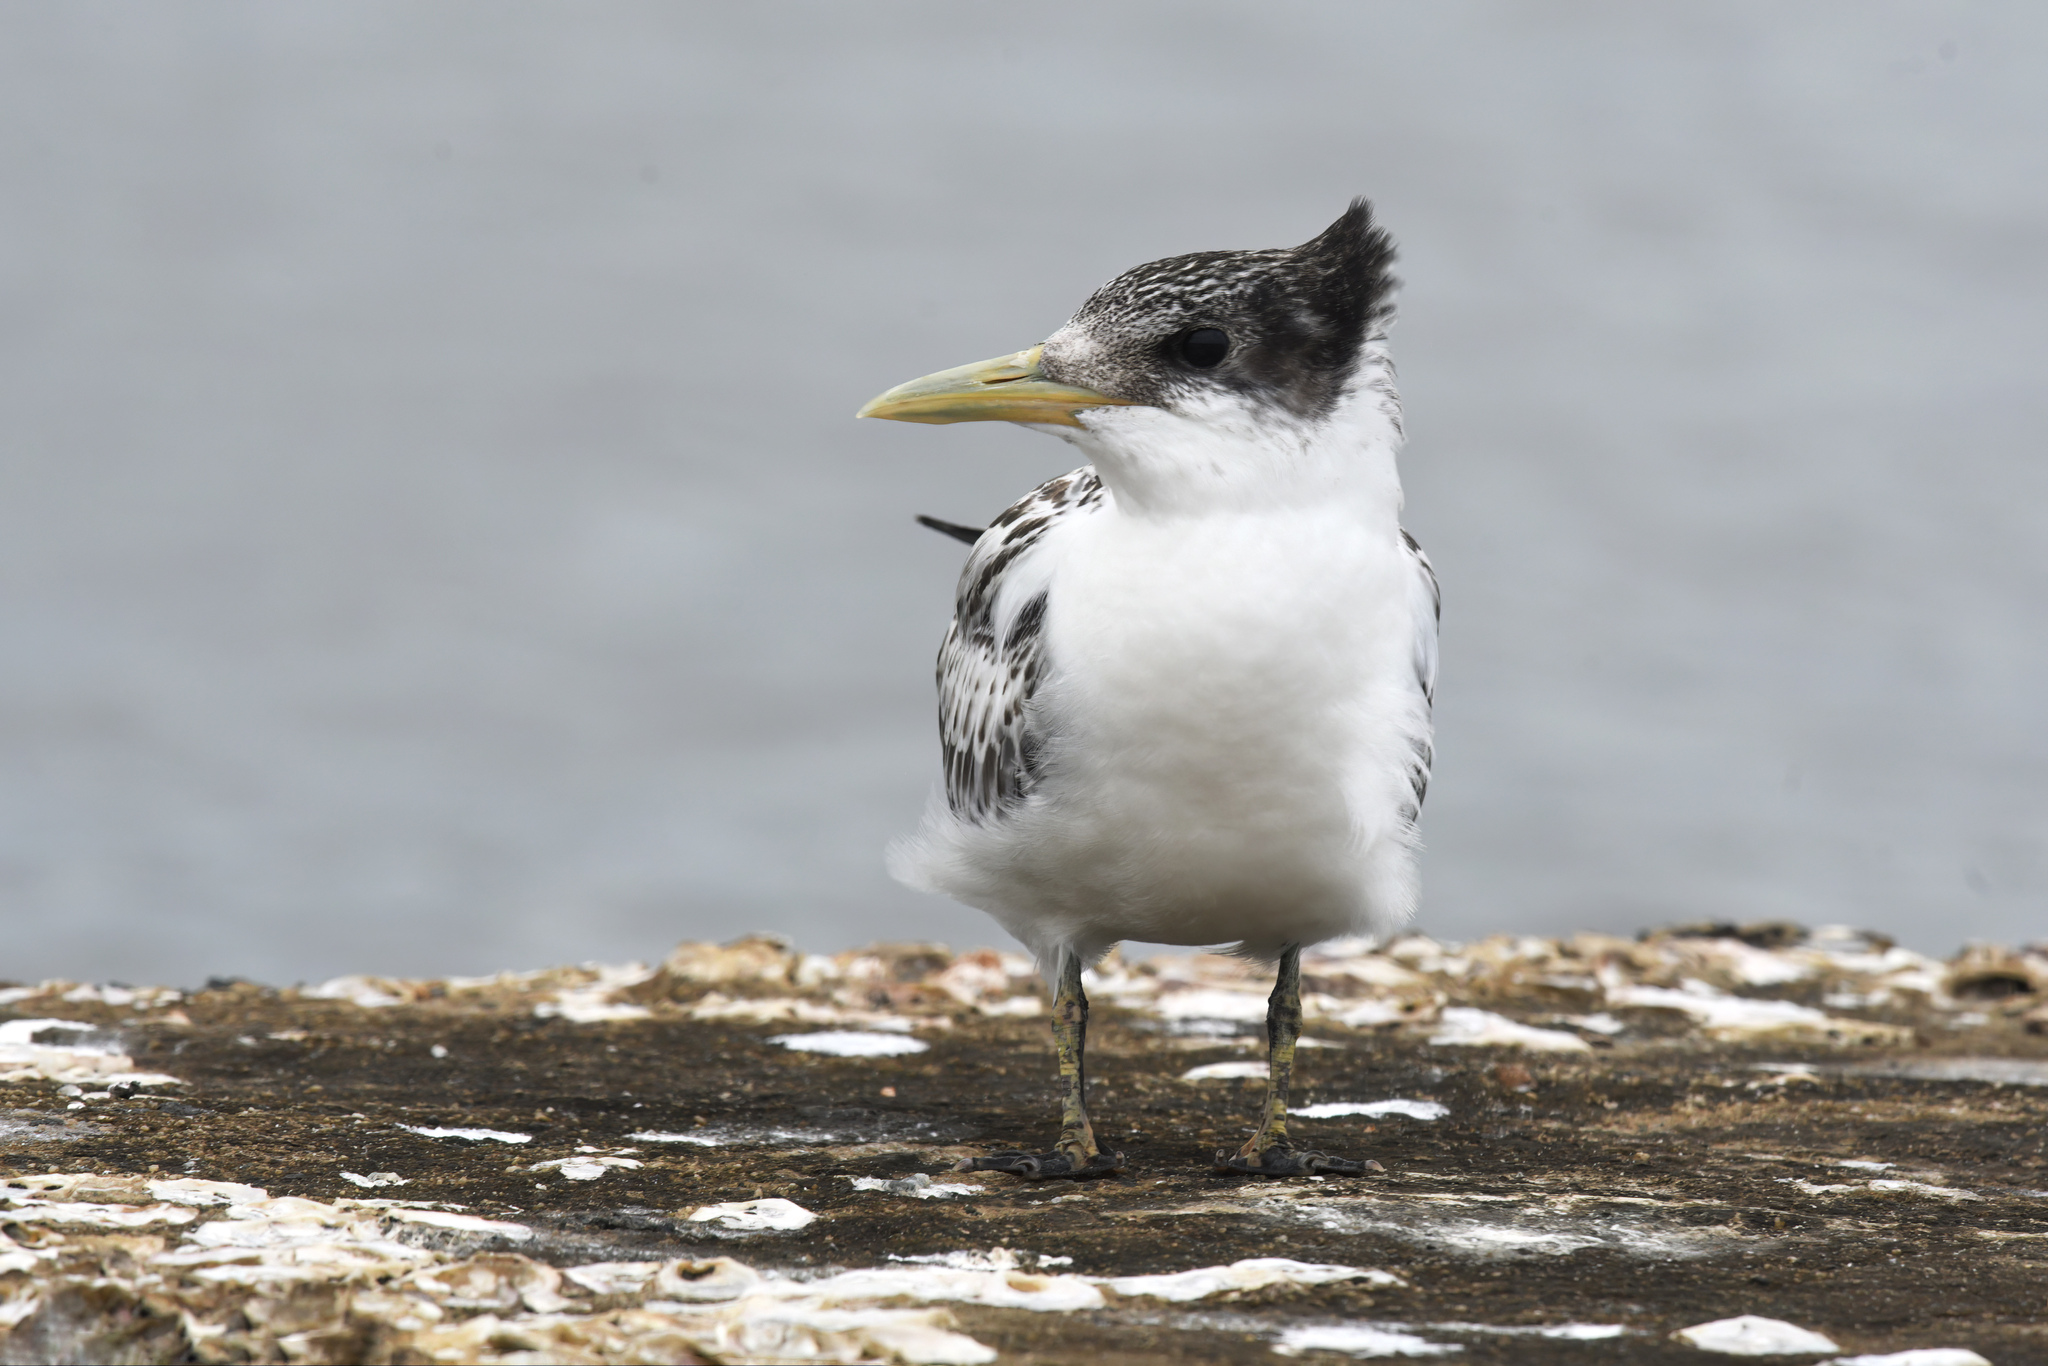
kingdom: Animalia
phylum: Chordata
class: Aves
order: Charadriiformes
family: Laridae
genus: Thalasseus
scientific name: Thalasseus bergii
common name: Greater crested tern
